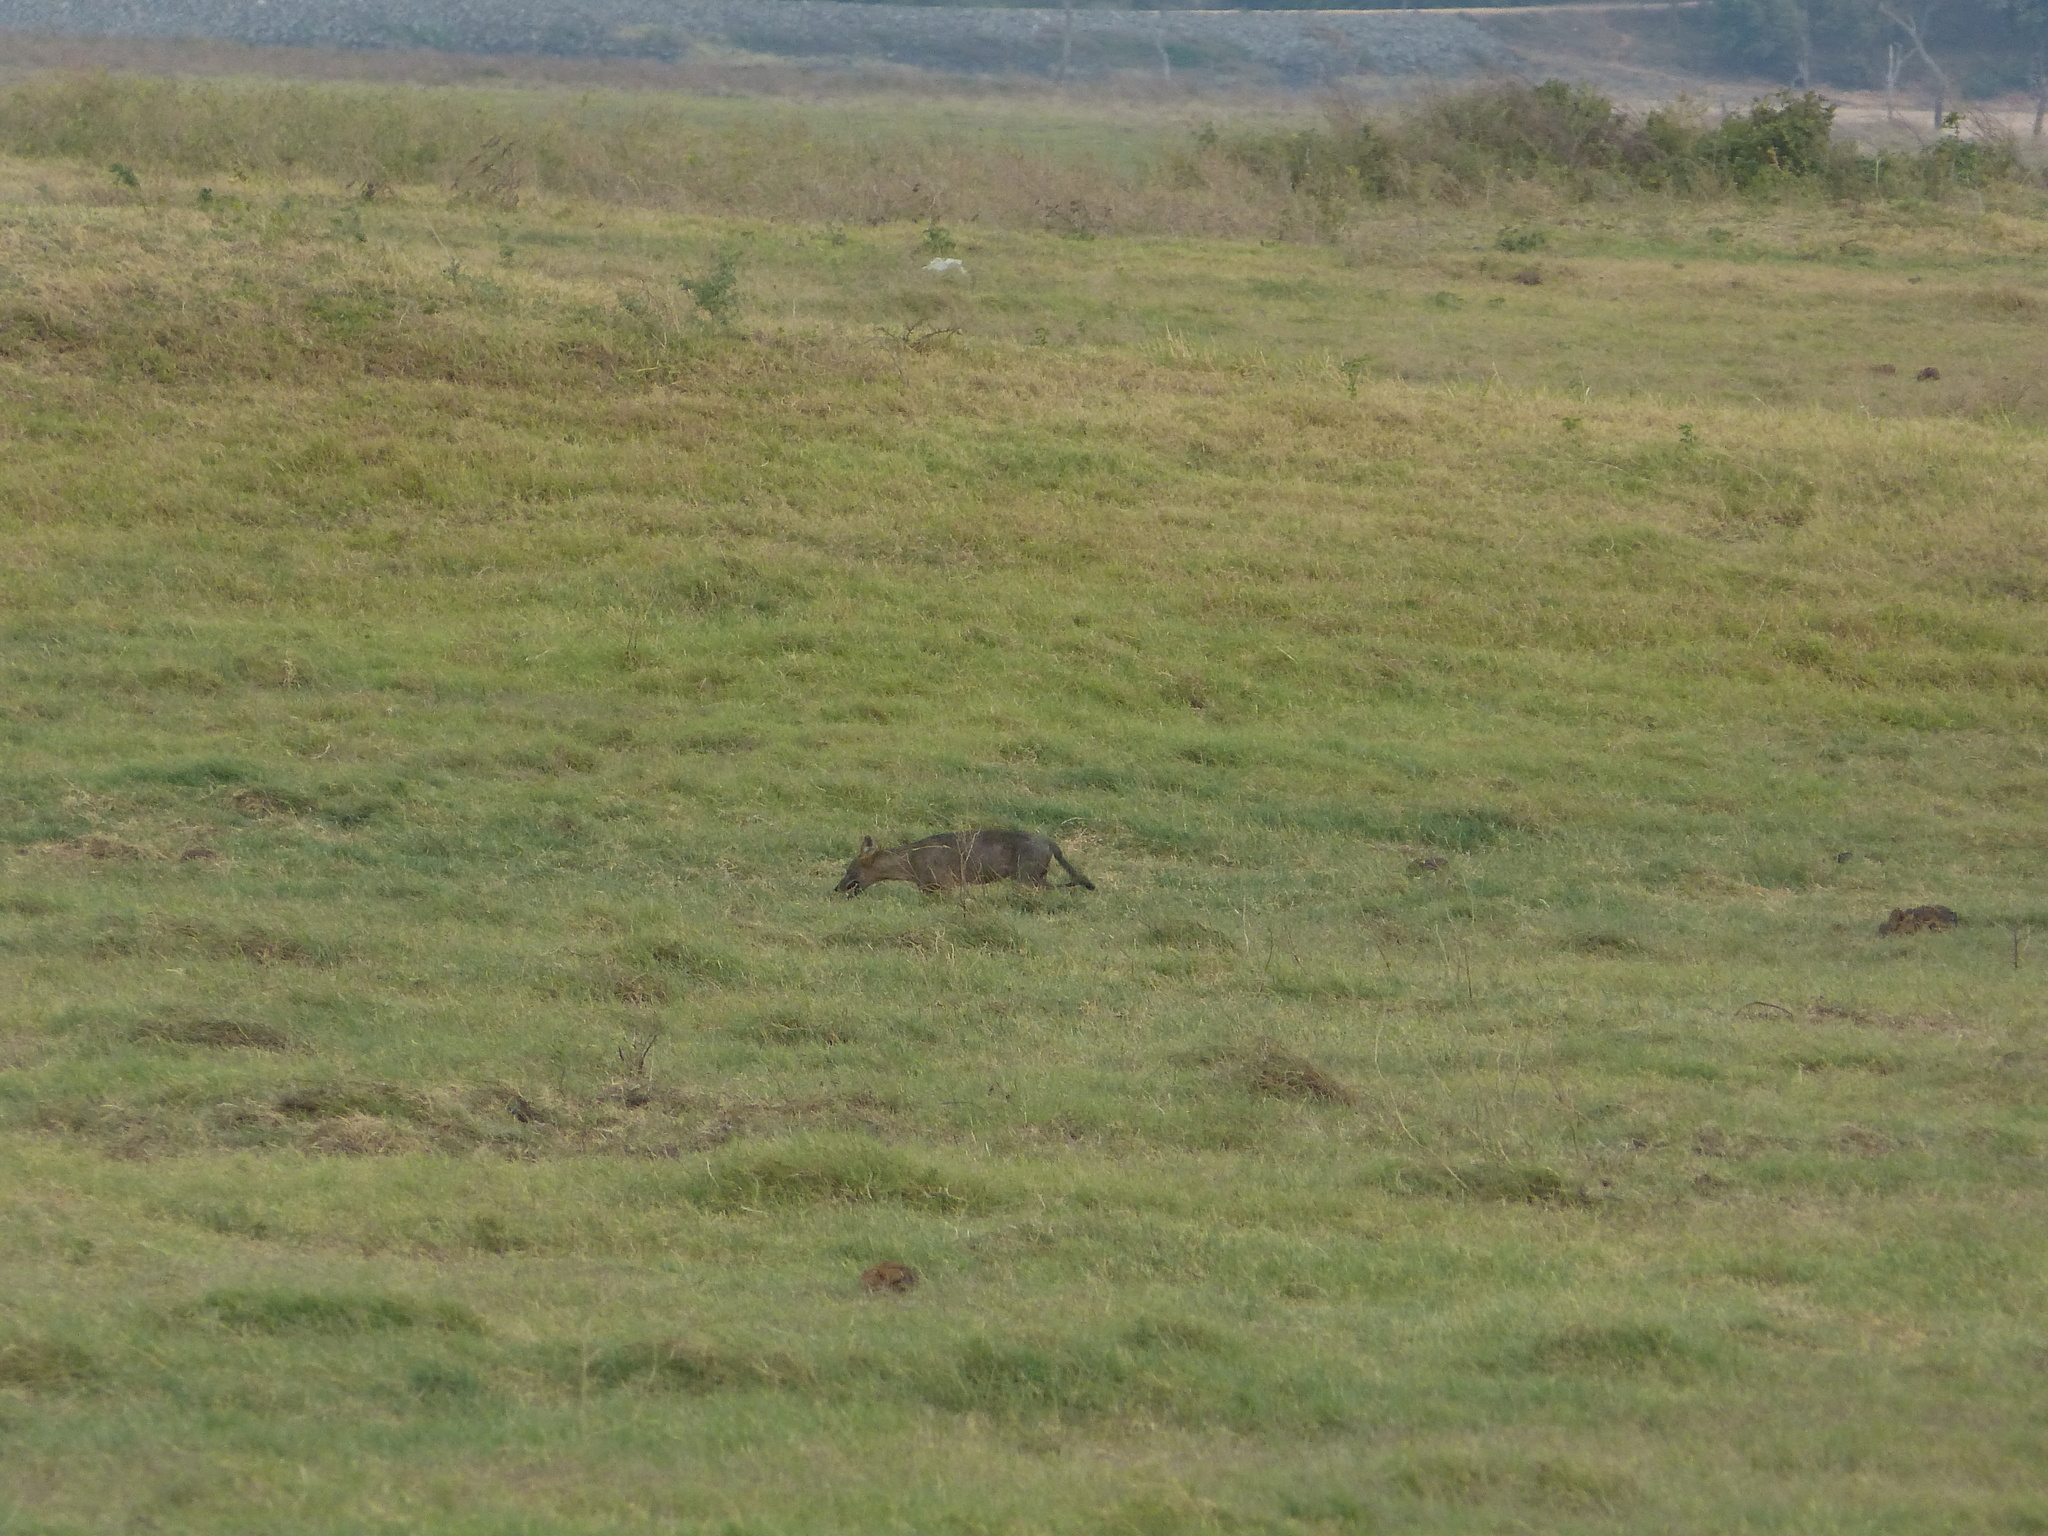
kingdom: Animalia
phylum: Chordata
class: Mammalia
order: Carnivora
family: Canidae
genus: Canis
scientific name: Canis aureus
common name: Golden jackal
